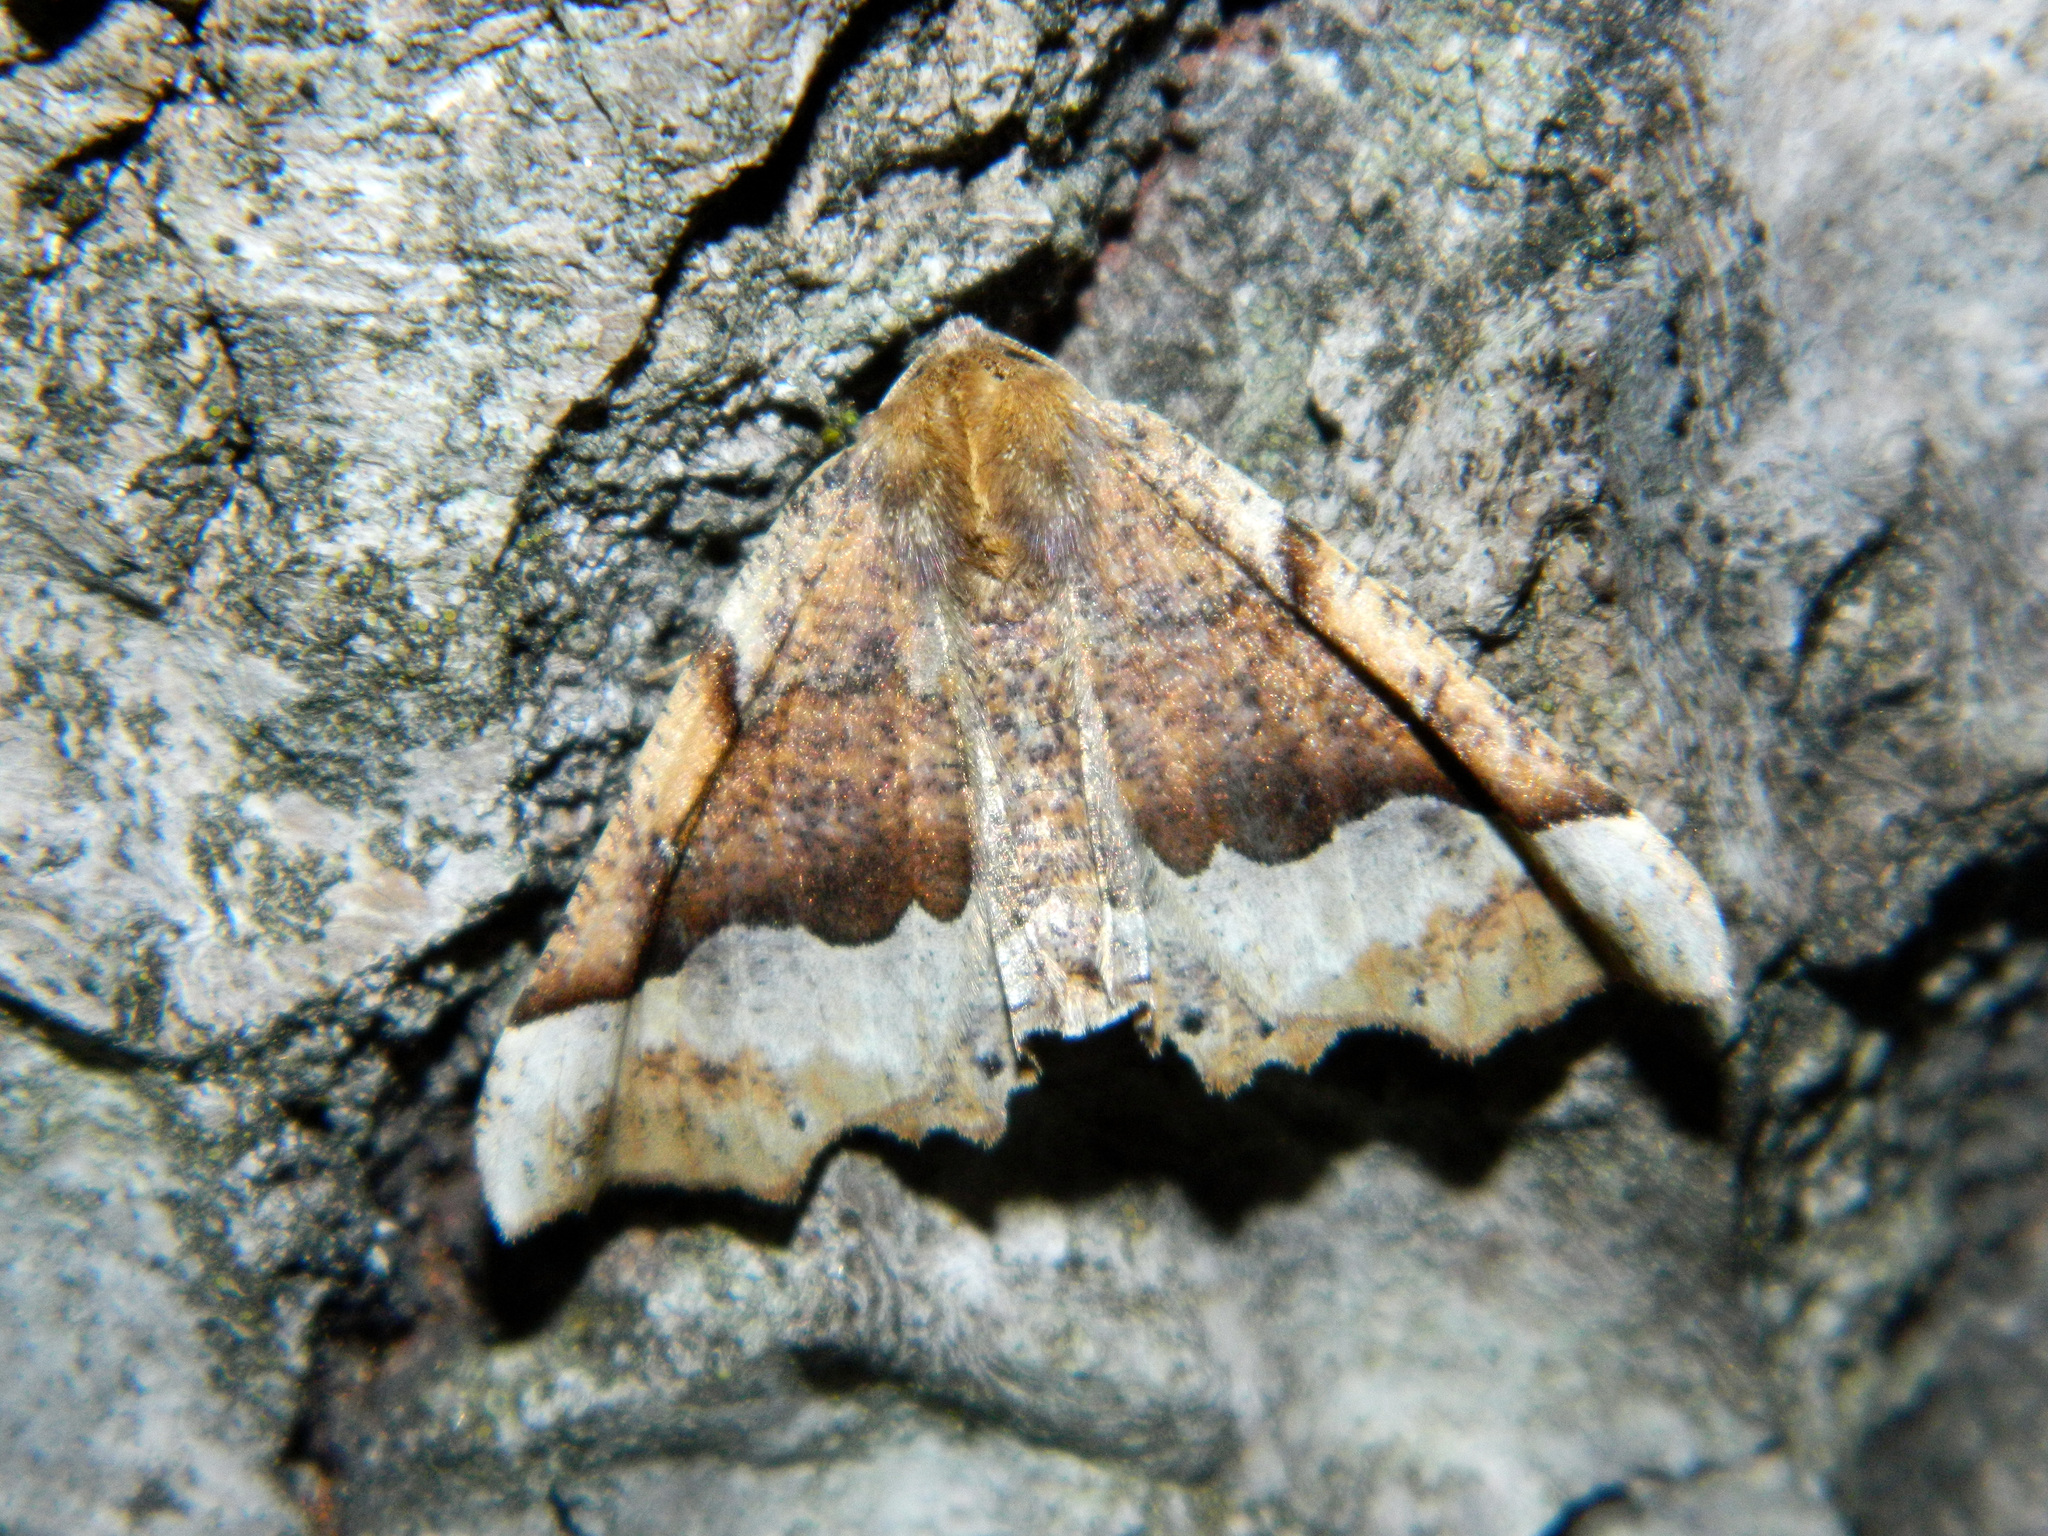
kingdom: Animalia
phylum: Arthropoda
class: Insecta
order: Lepidoptera
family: Geometridae
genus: Pero
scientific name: Pero morrisonaria
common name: Morrison's pero
